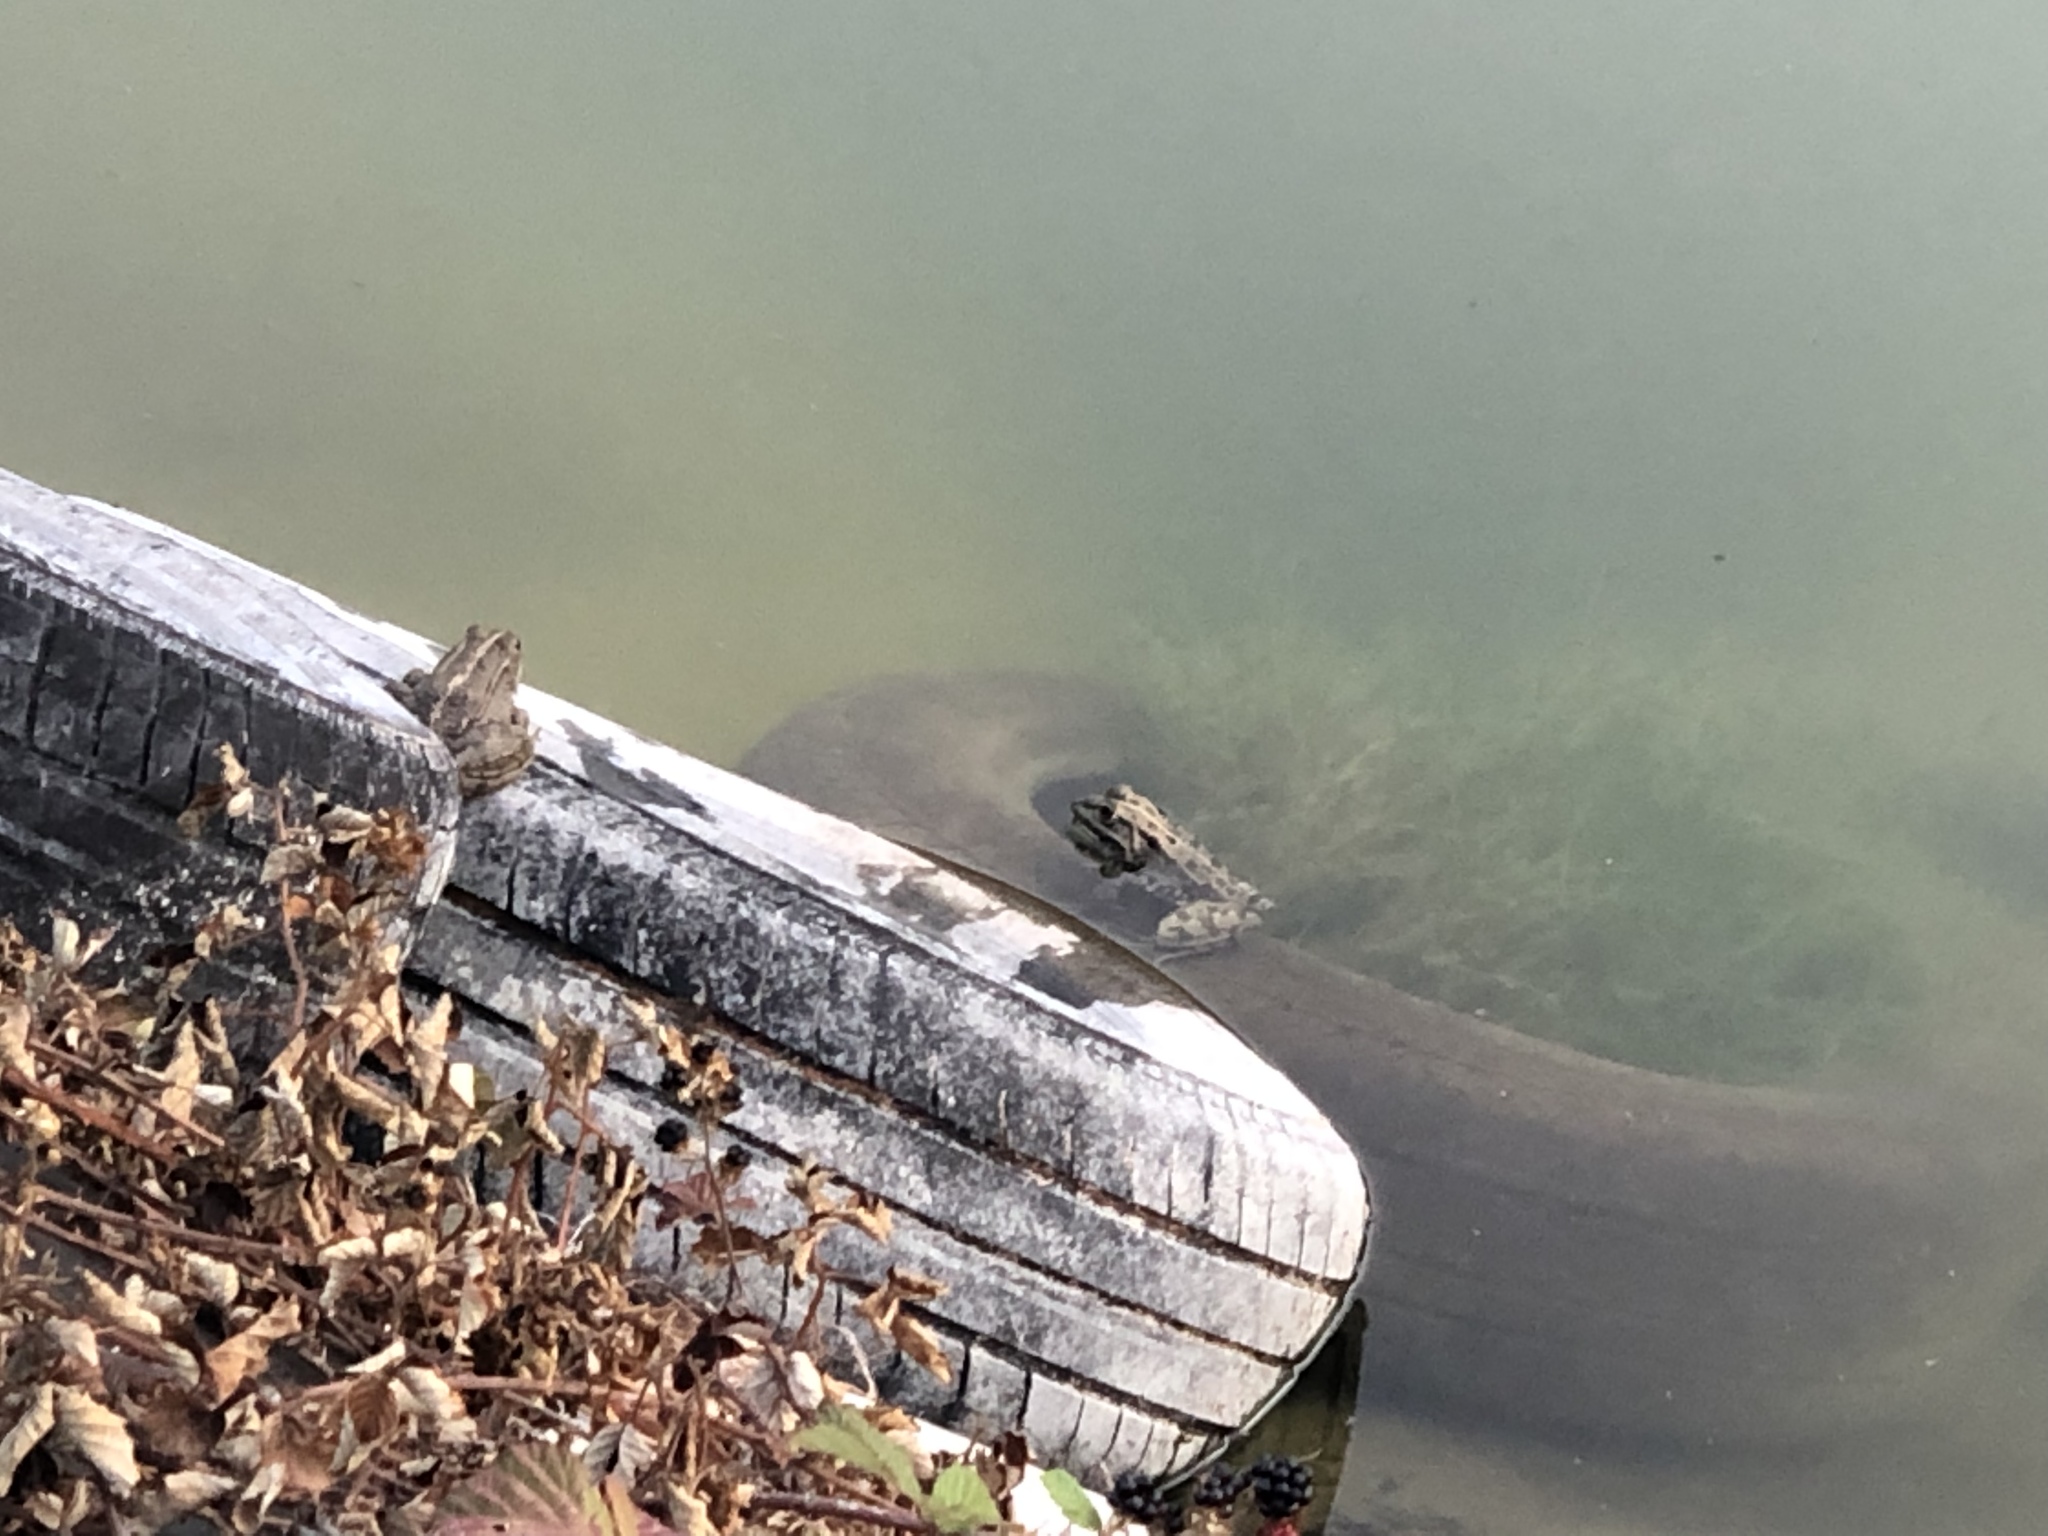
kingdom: Animalia
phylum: Chordata
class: Amphibia
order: Anura
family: Ranidae
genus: Pelophylax
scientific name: Pelophylax perezi
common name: Perez's frog
